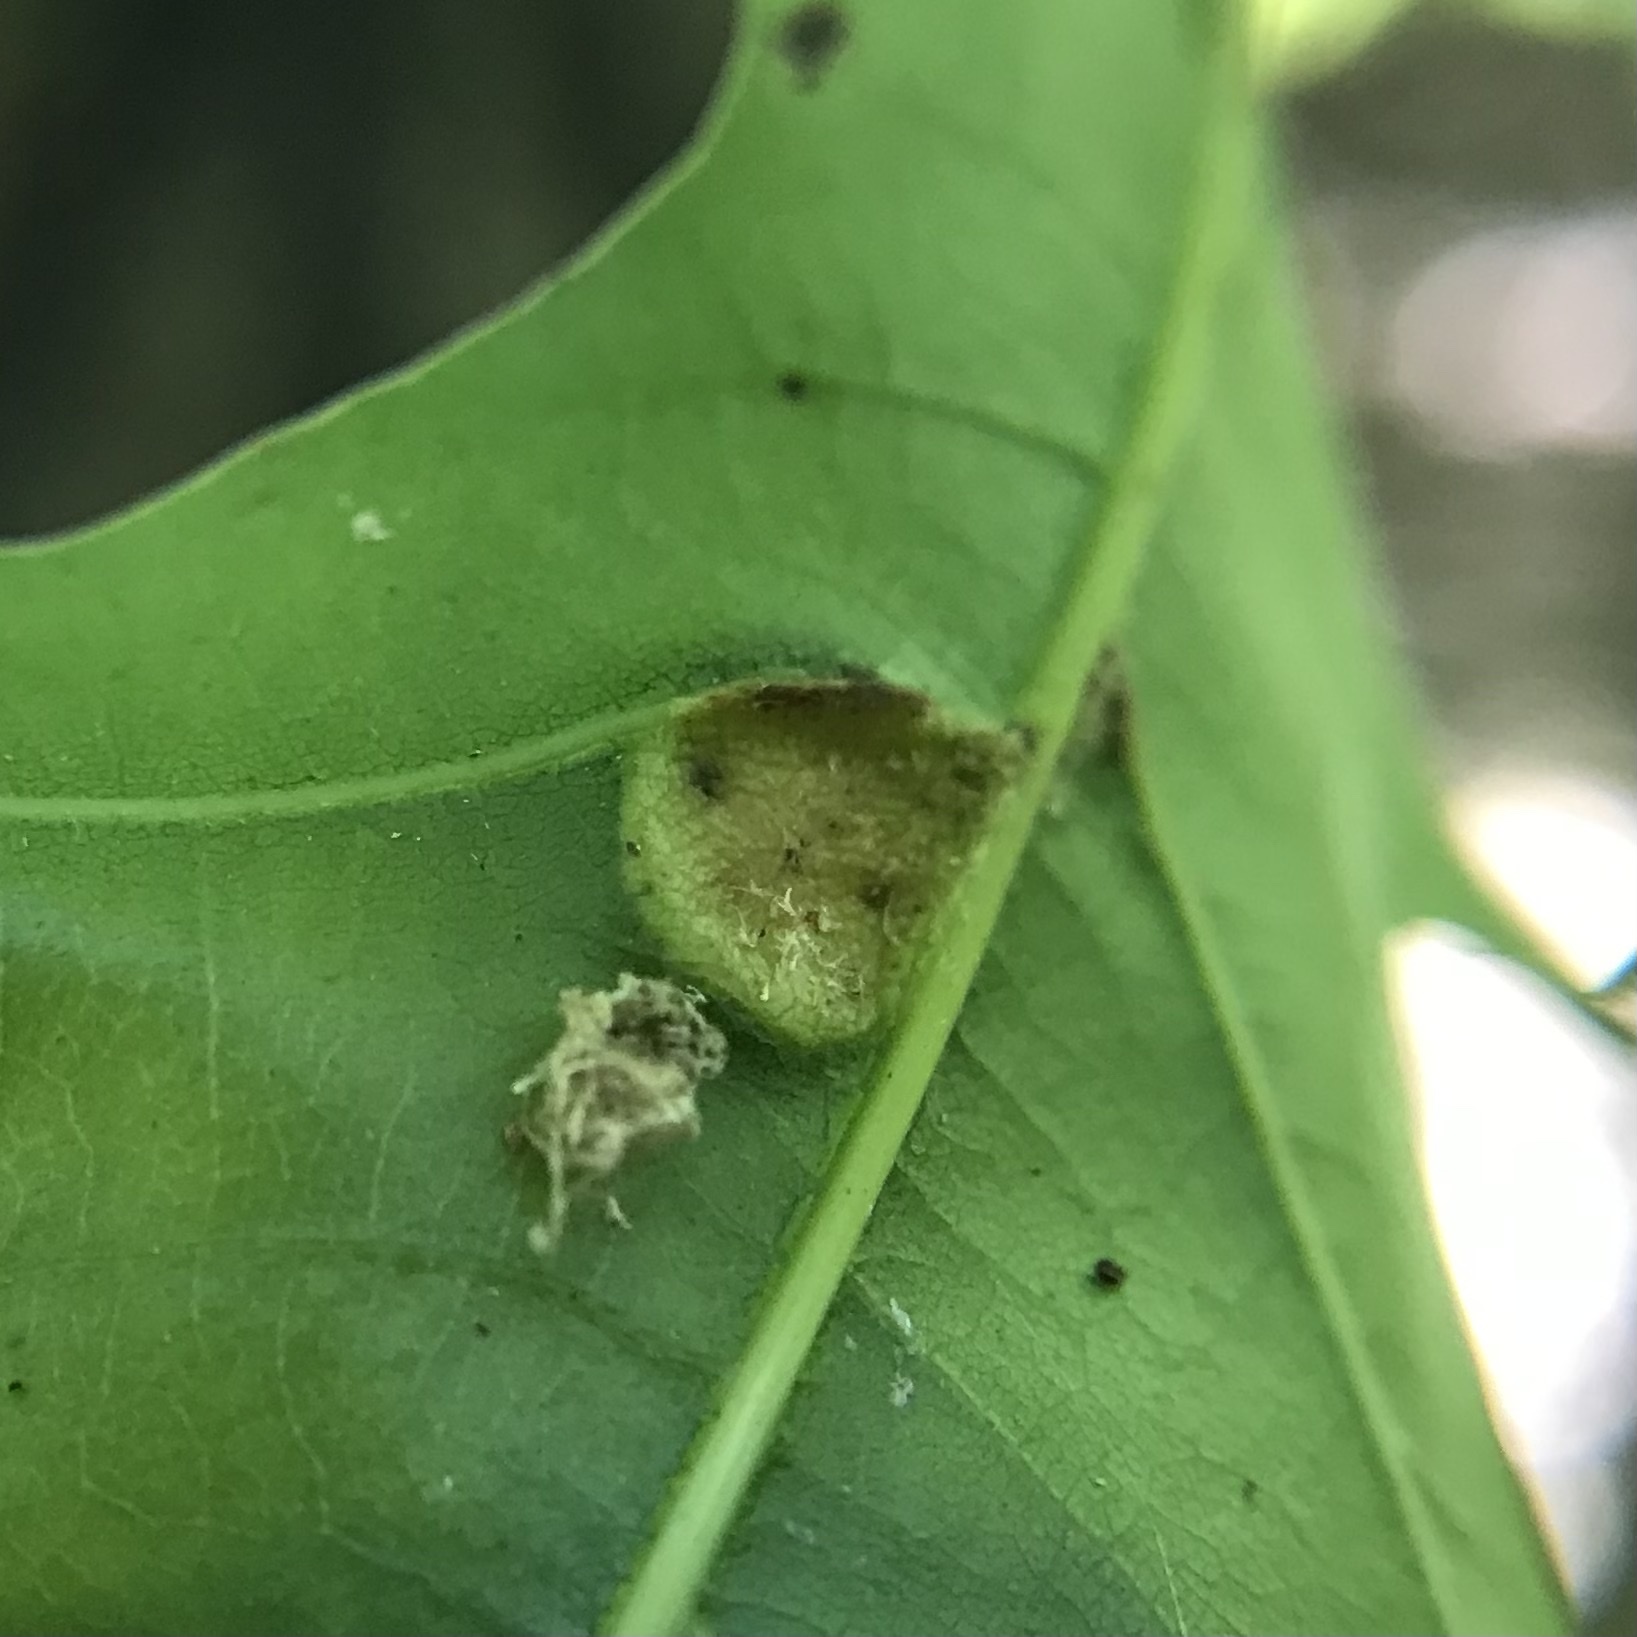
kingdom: Animalia
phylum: Arthropoda
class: Insecta
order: Diptera
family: Cecidomyiidae
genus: Polystepha
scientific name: Polystepha pilulae
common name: Oak leaf gall midge
